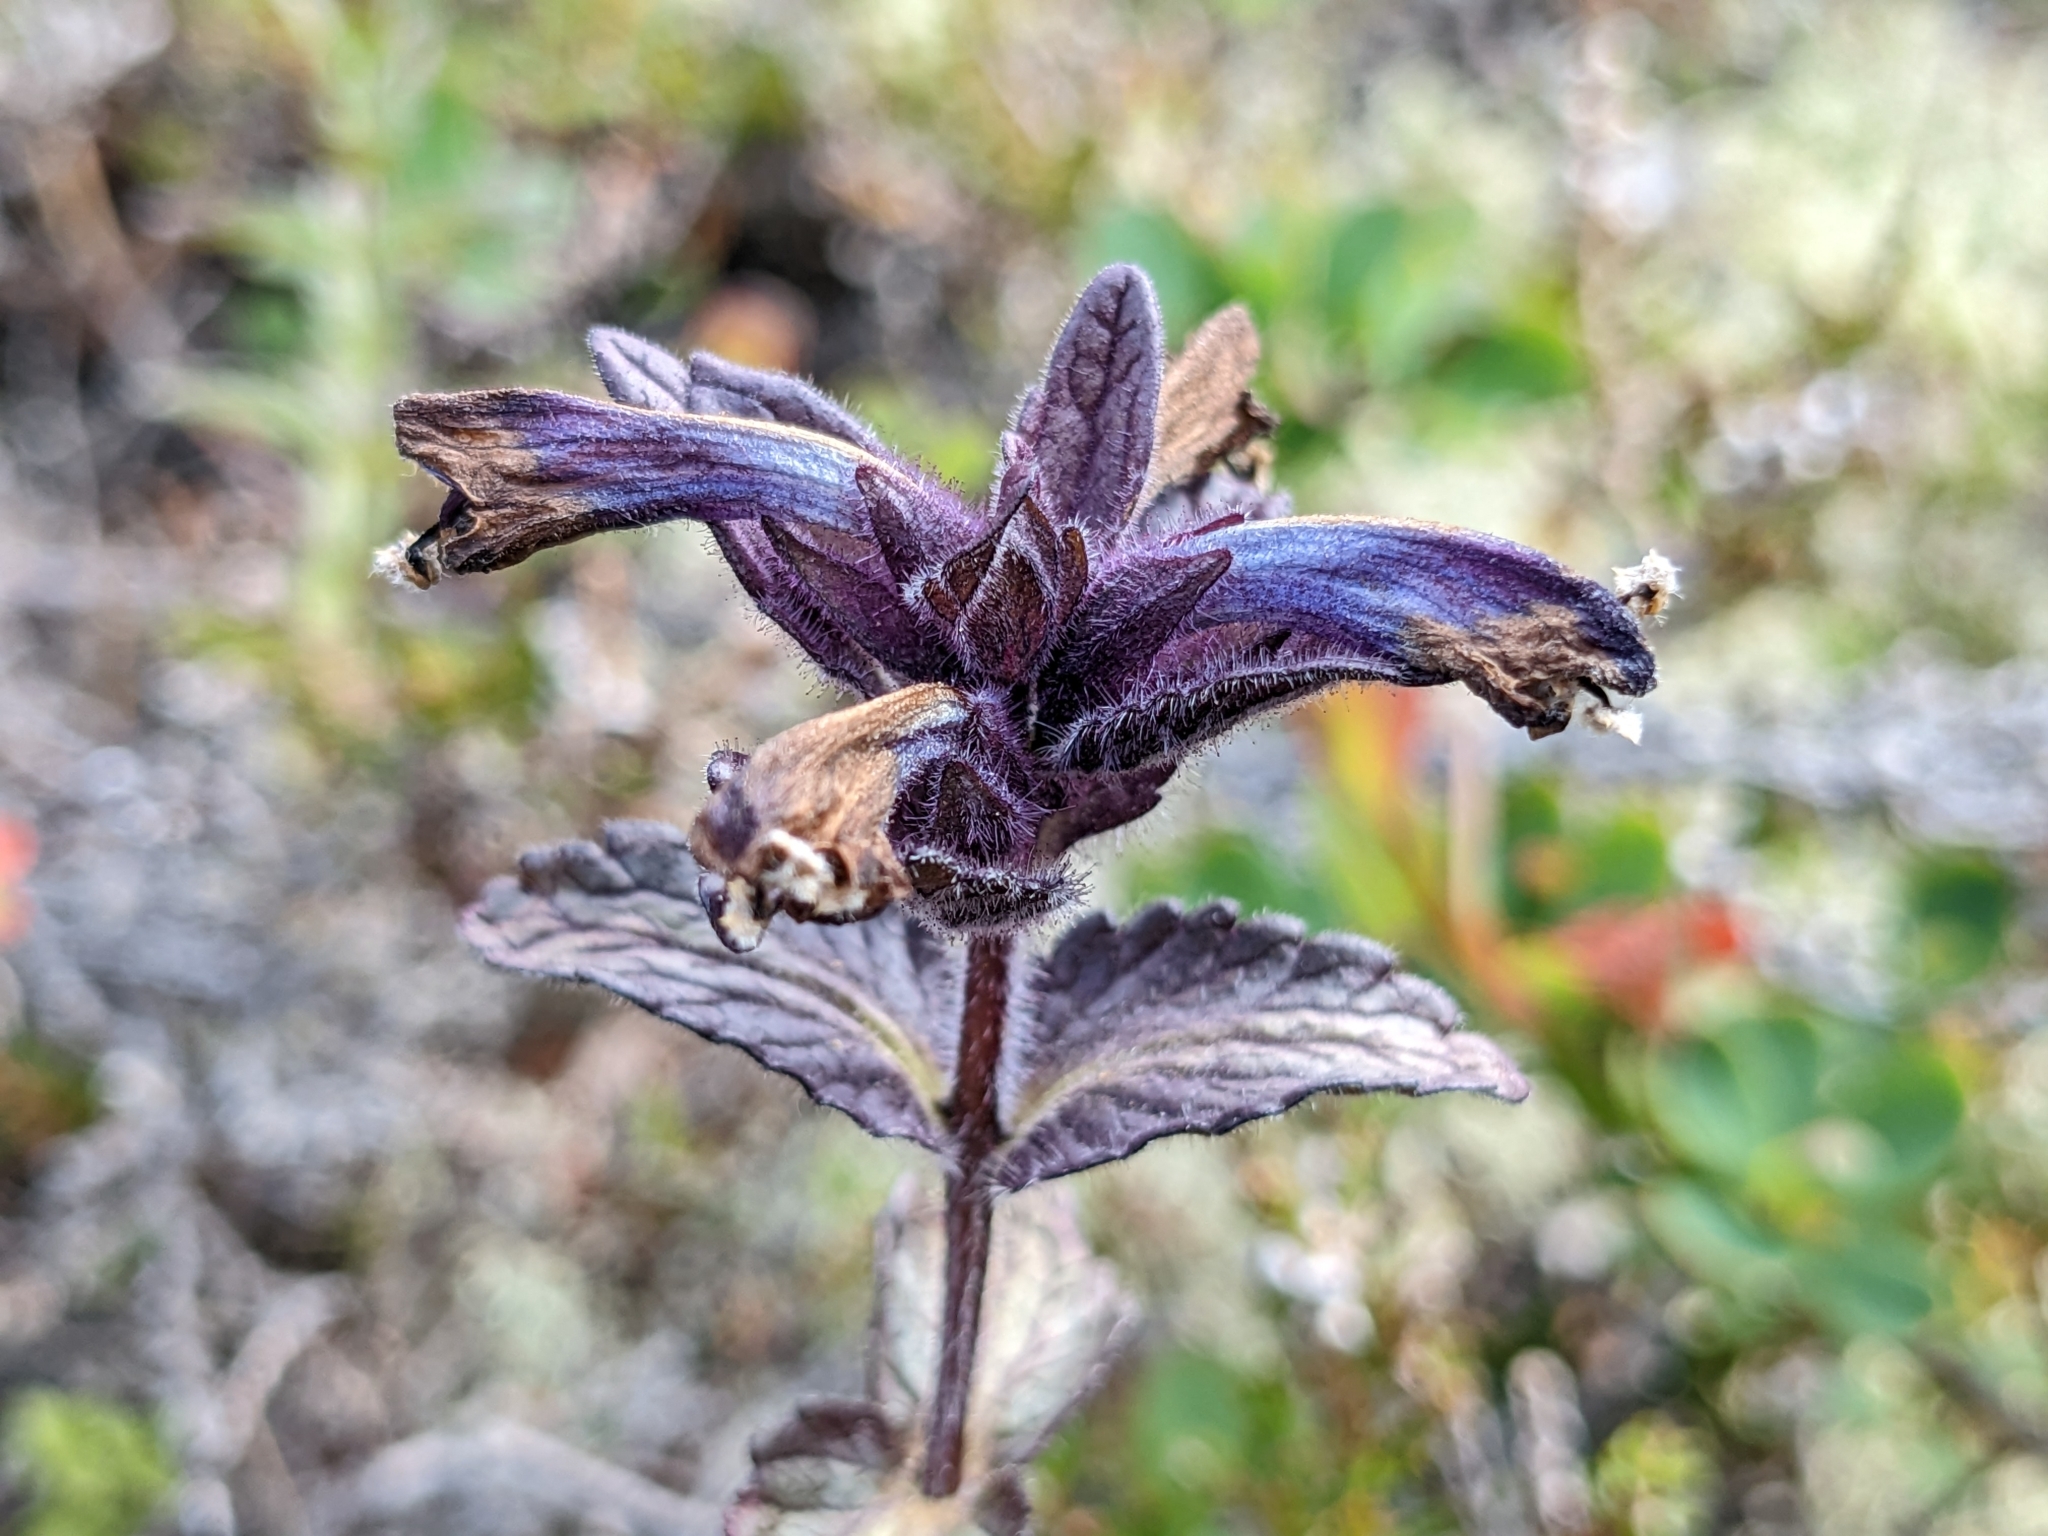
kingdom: Plantae
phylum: Tracheophyta
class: Magnoliopsida
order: Lamiales
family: Orobanchaceae
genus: Bartsia
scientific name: Bartsia alpina
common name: Alpine bartsia
